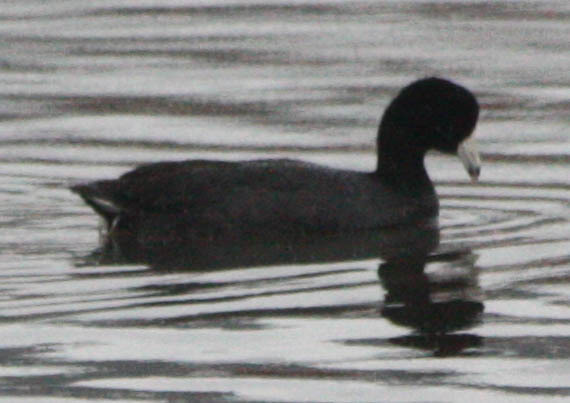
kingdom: Animalia
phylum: Chordata
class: Aves
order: Gruiformes
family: Rallidae
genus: Fulica
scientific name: Fulica americana
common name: American coot
